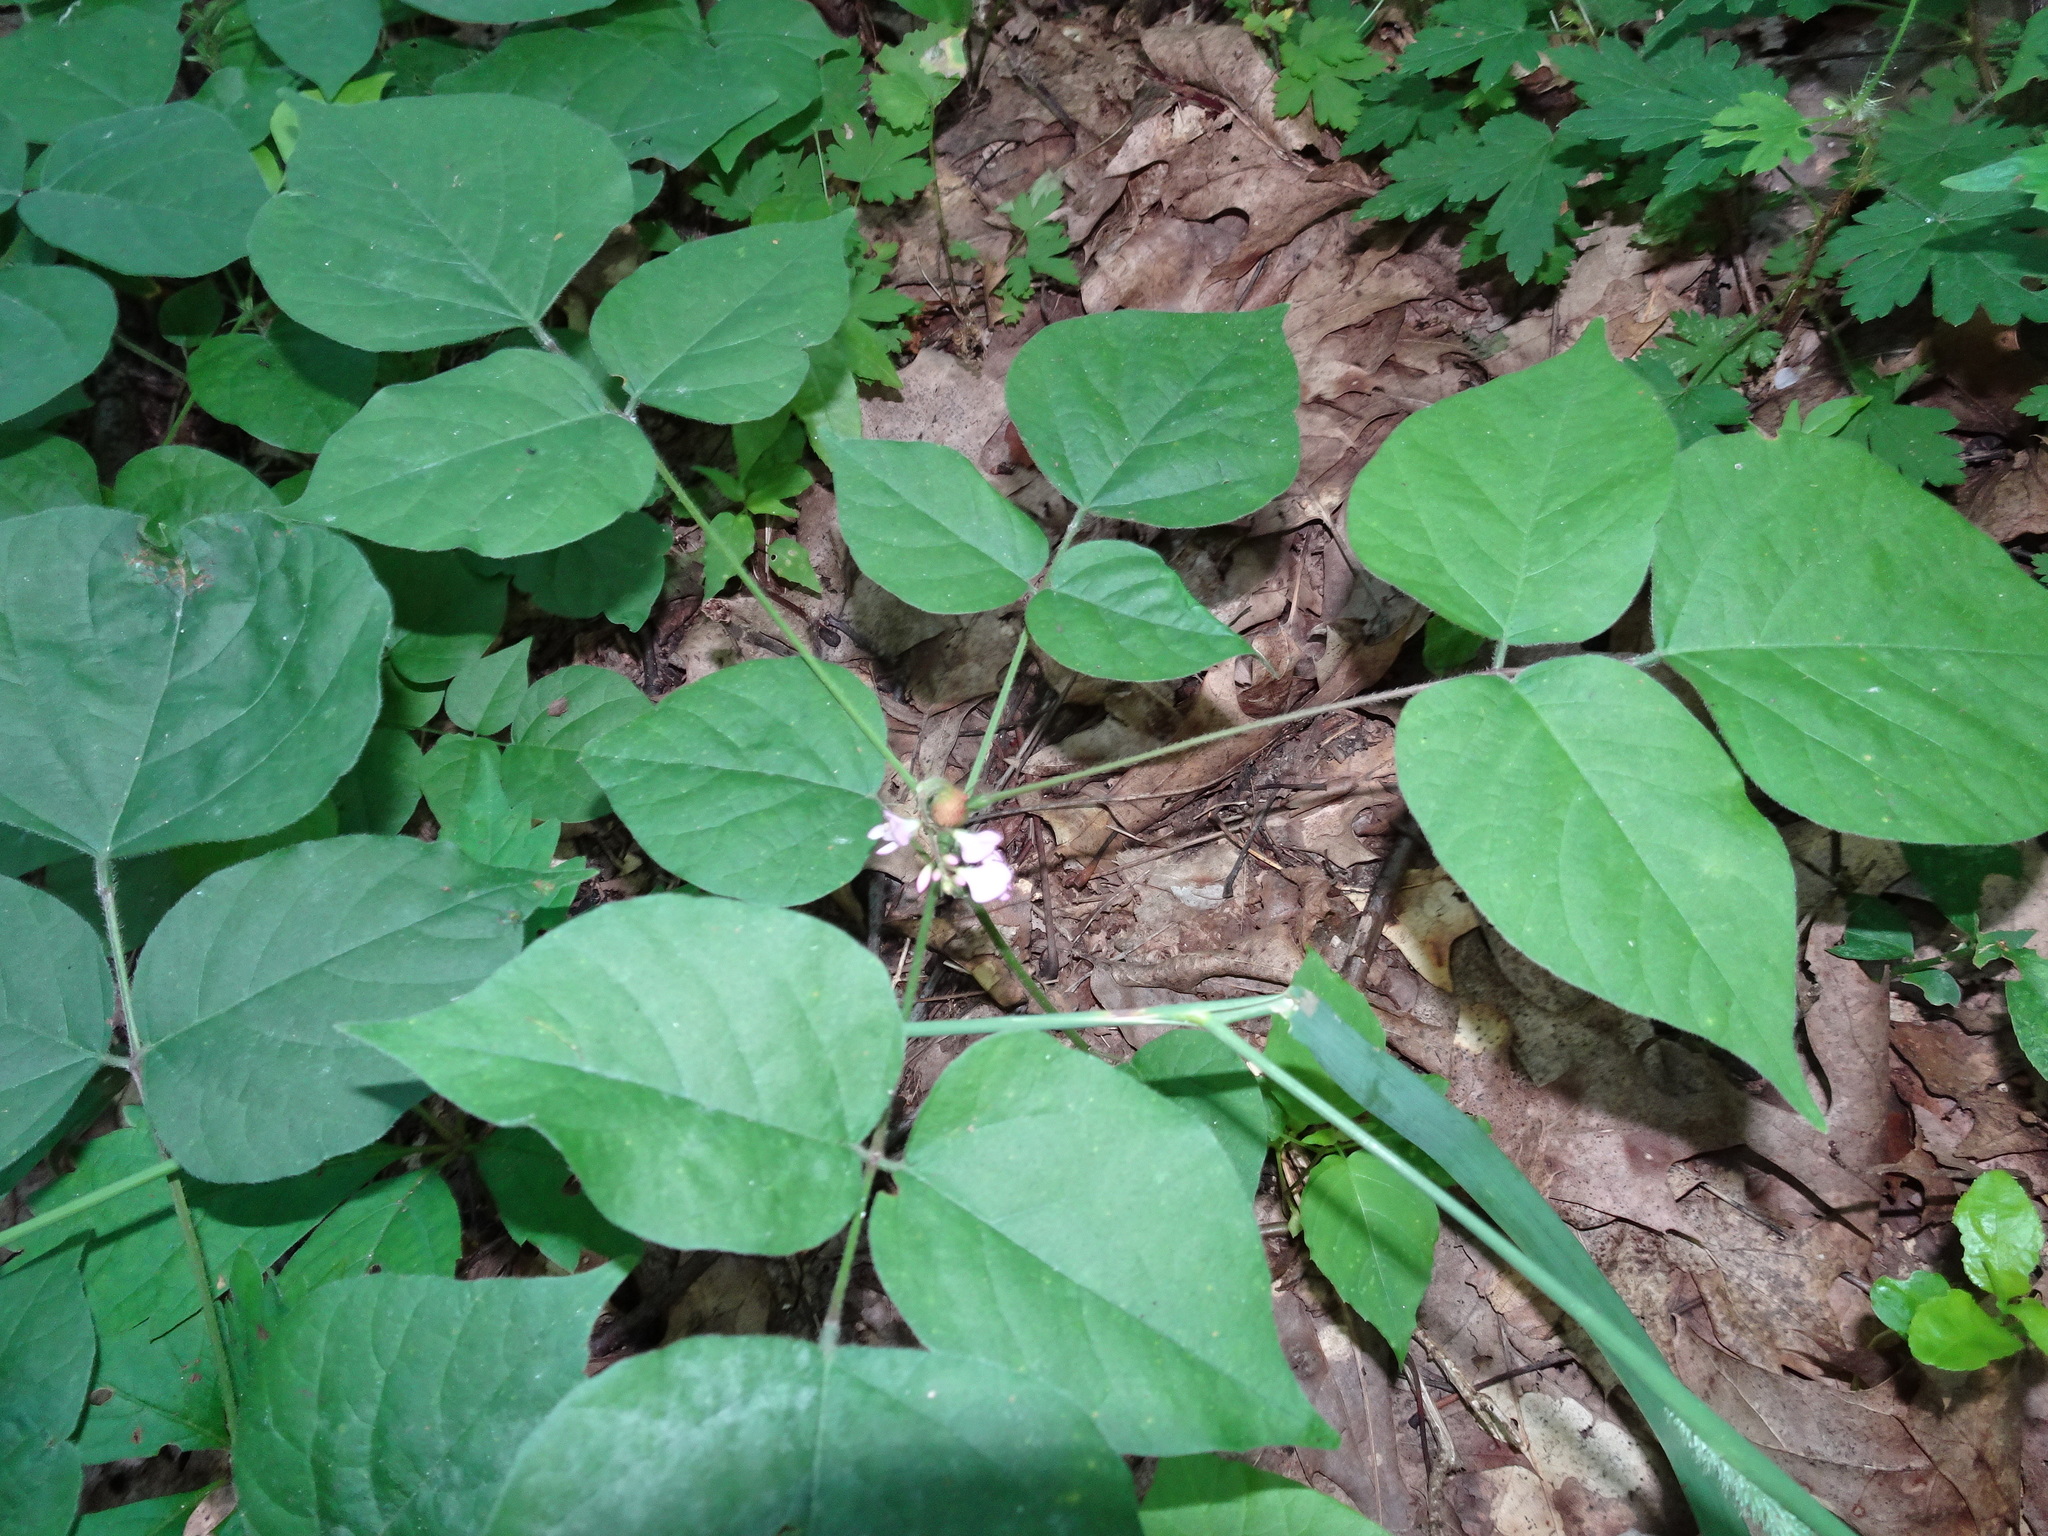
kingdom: Plantae
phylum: Tracheophyta
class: Magnoliopsida
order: Fabales
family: Fabaceae
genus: Hylodesmum
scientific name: Hylodesmum glutinosum
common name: Clustered-leaved tick-trefoil
